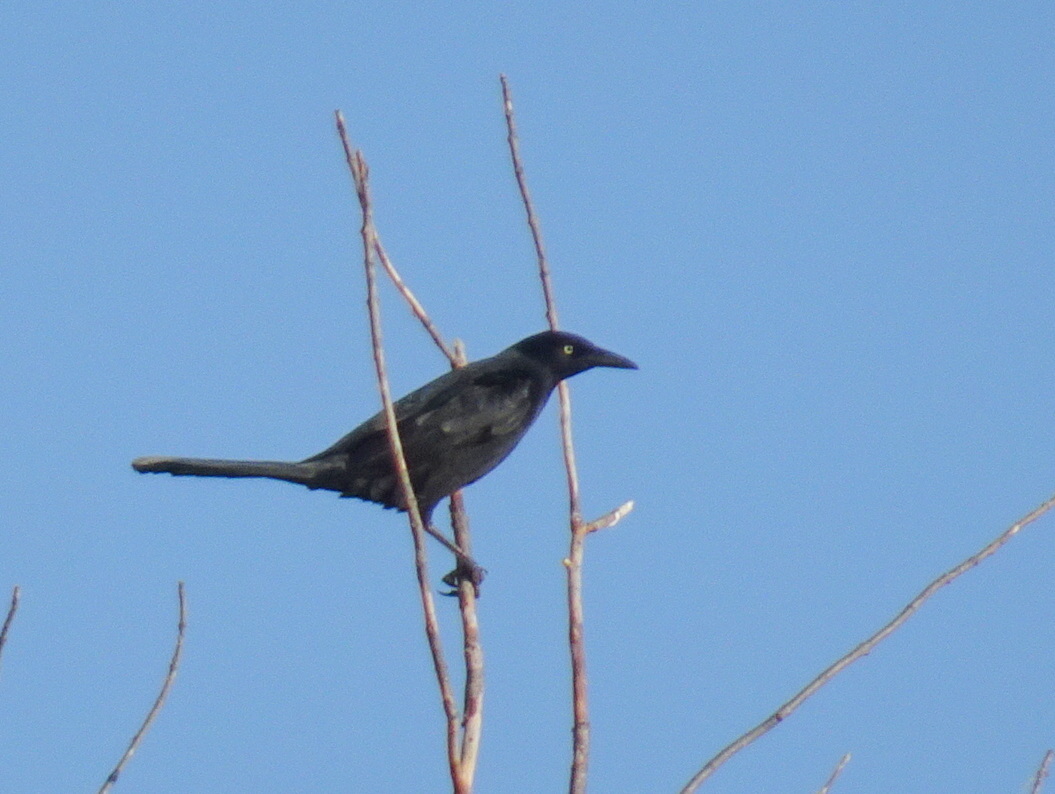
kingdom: Animalia
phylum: Chordata
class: Aves
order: Passeriformes
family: Icteridae
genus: Quiscalus
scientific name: Quiscalus mexicanus
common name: Great-tailed grackle
